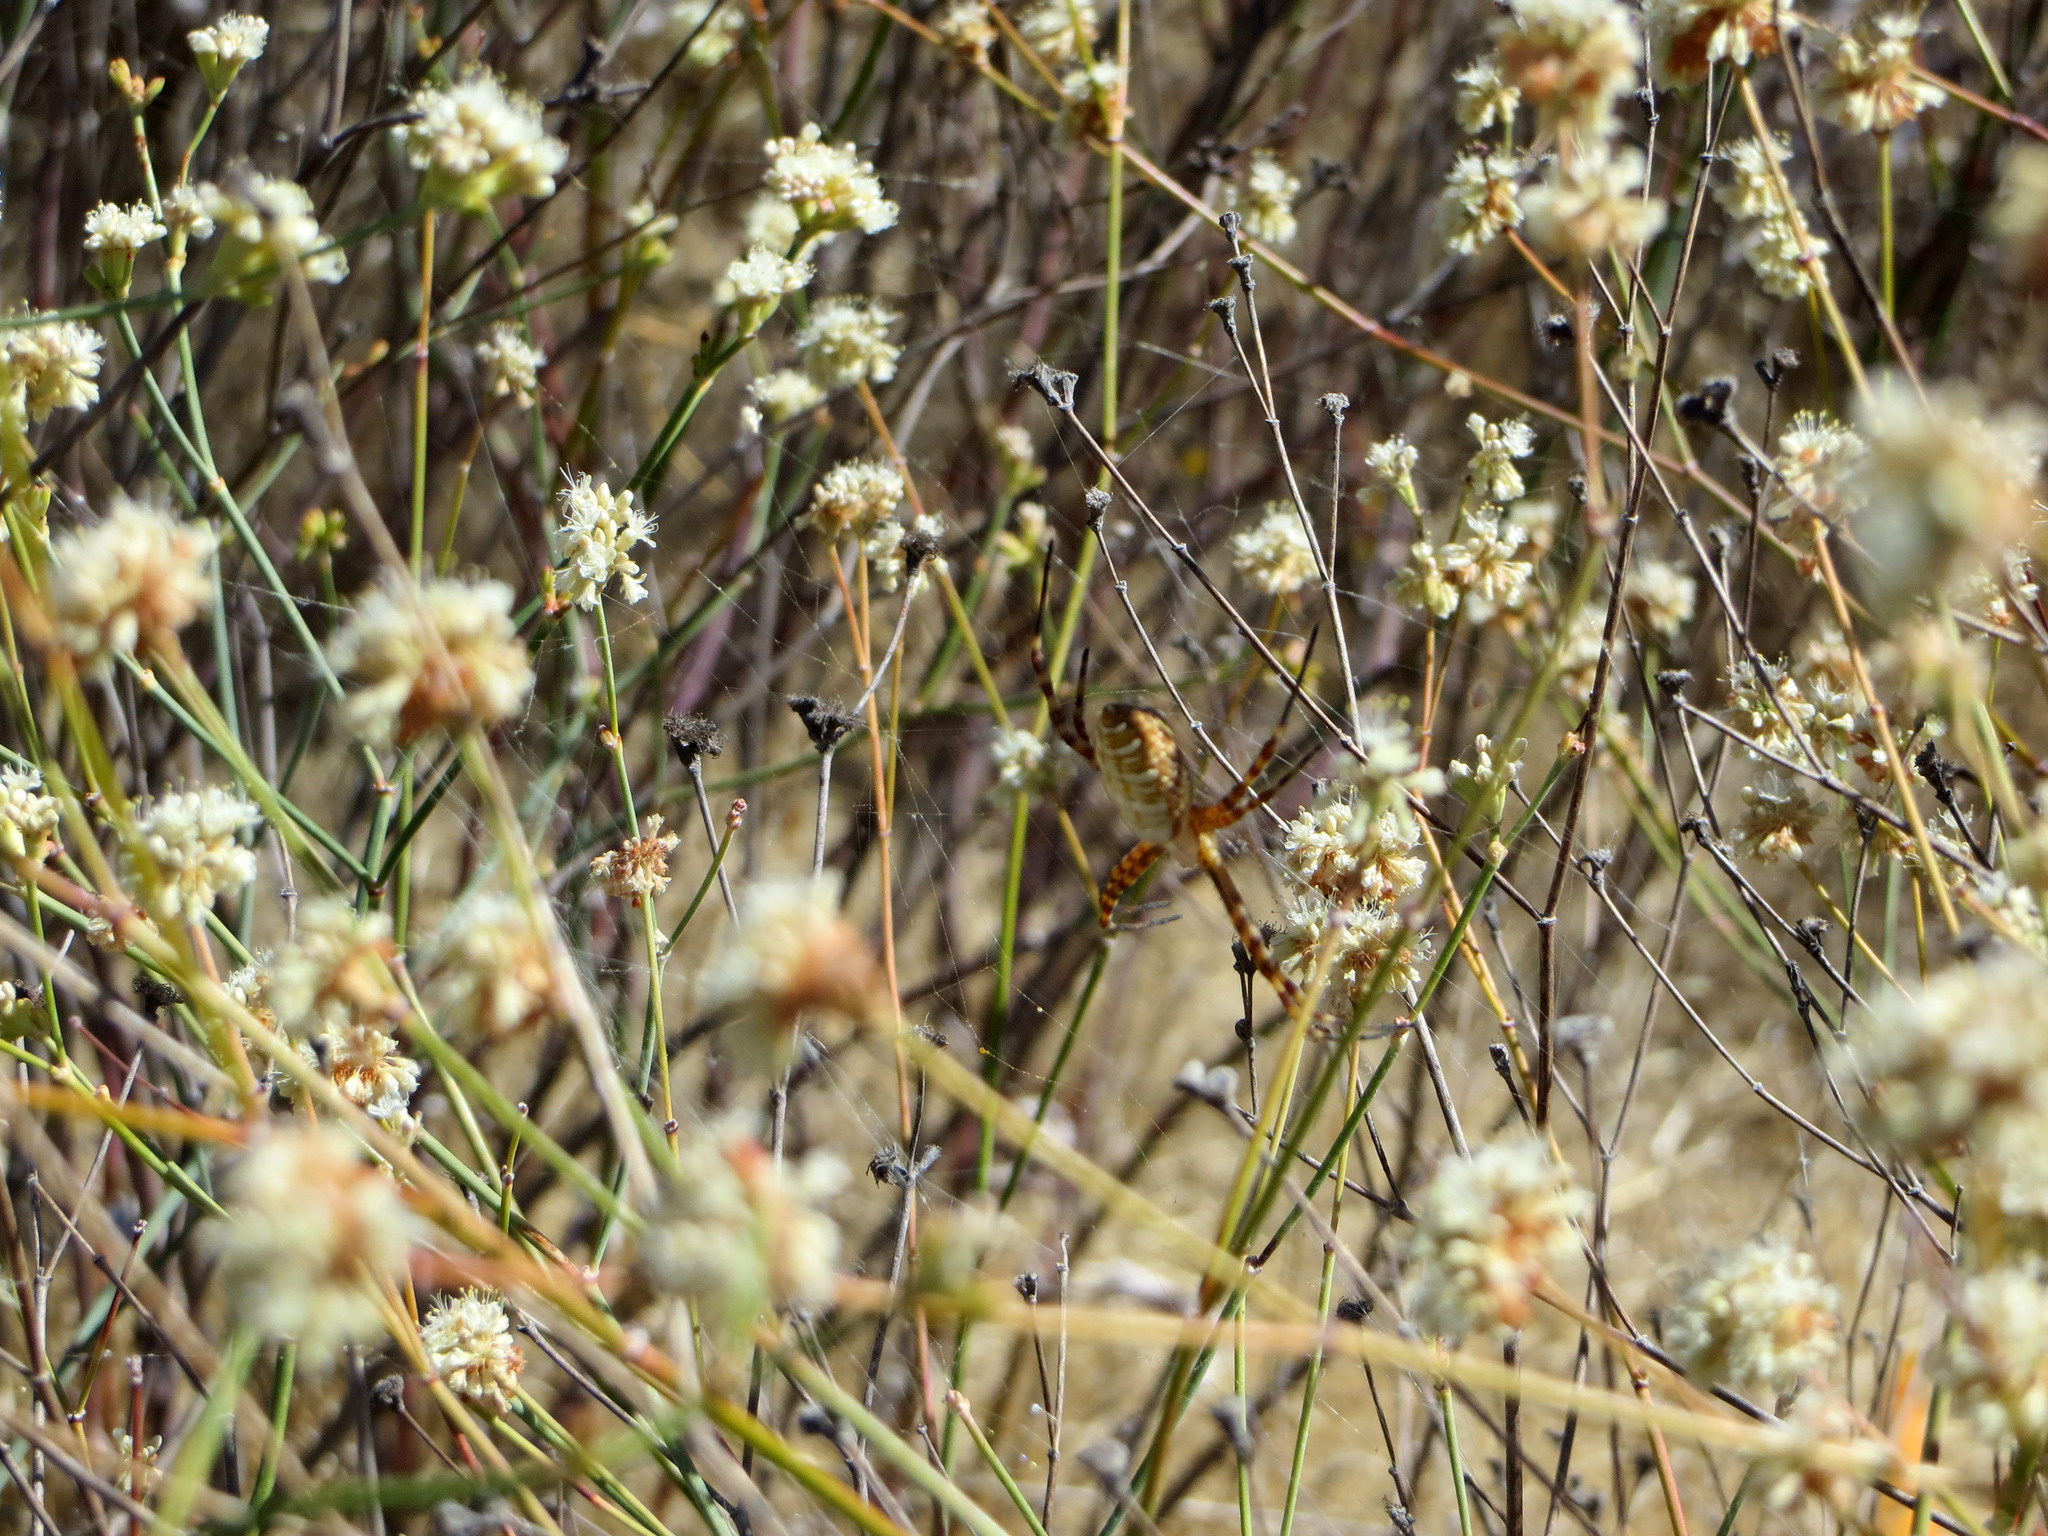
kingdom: Animalia
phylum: Arthropoda
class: Arachnida
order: Araneae
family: Araneidae
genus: Argiope
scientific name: Argiope trifasciata
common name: Banded garden spider
